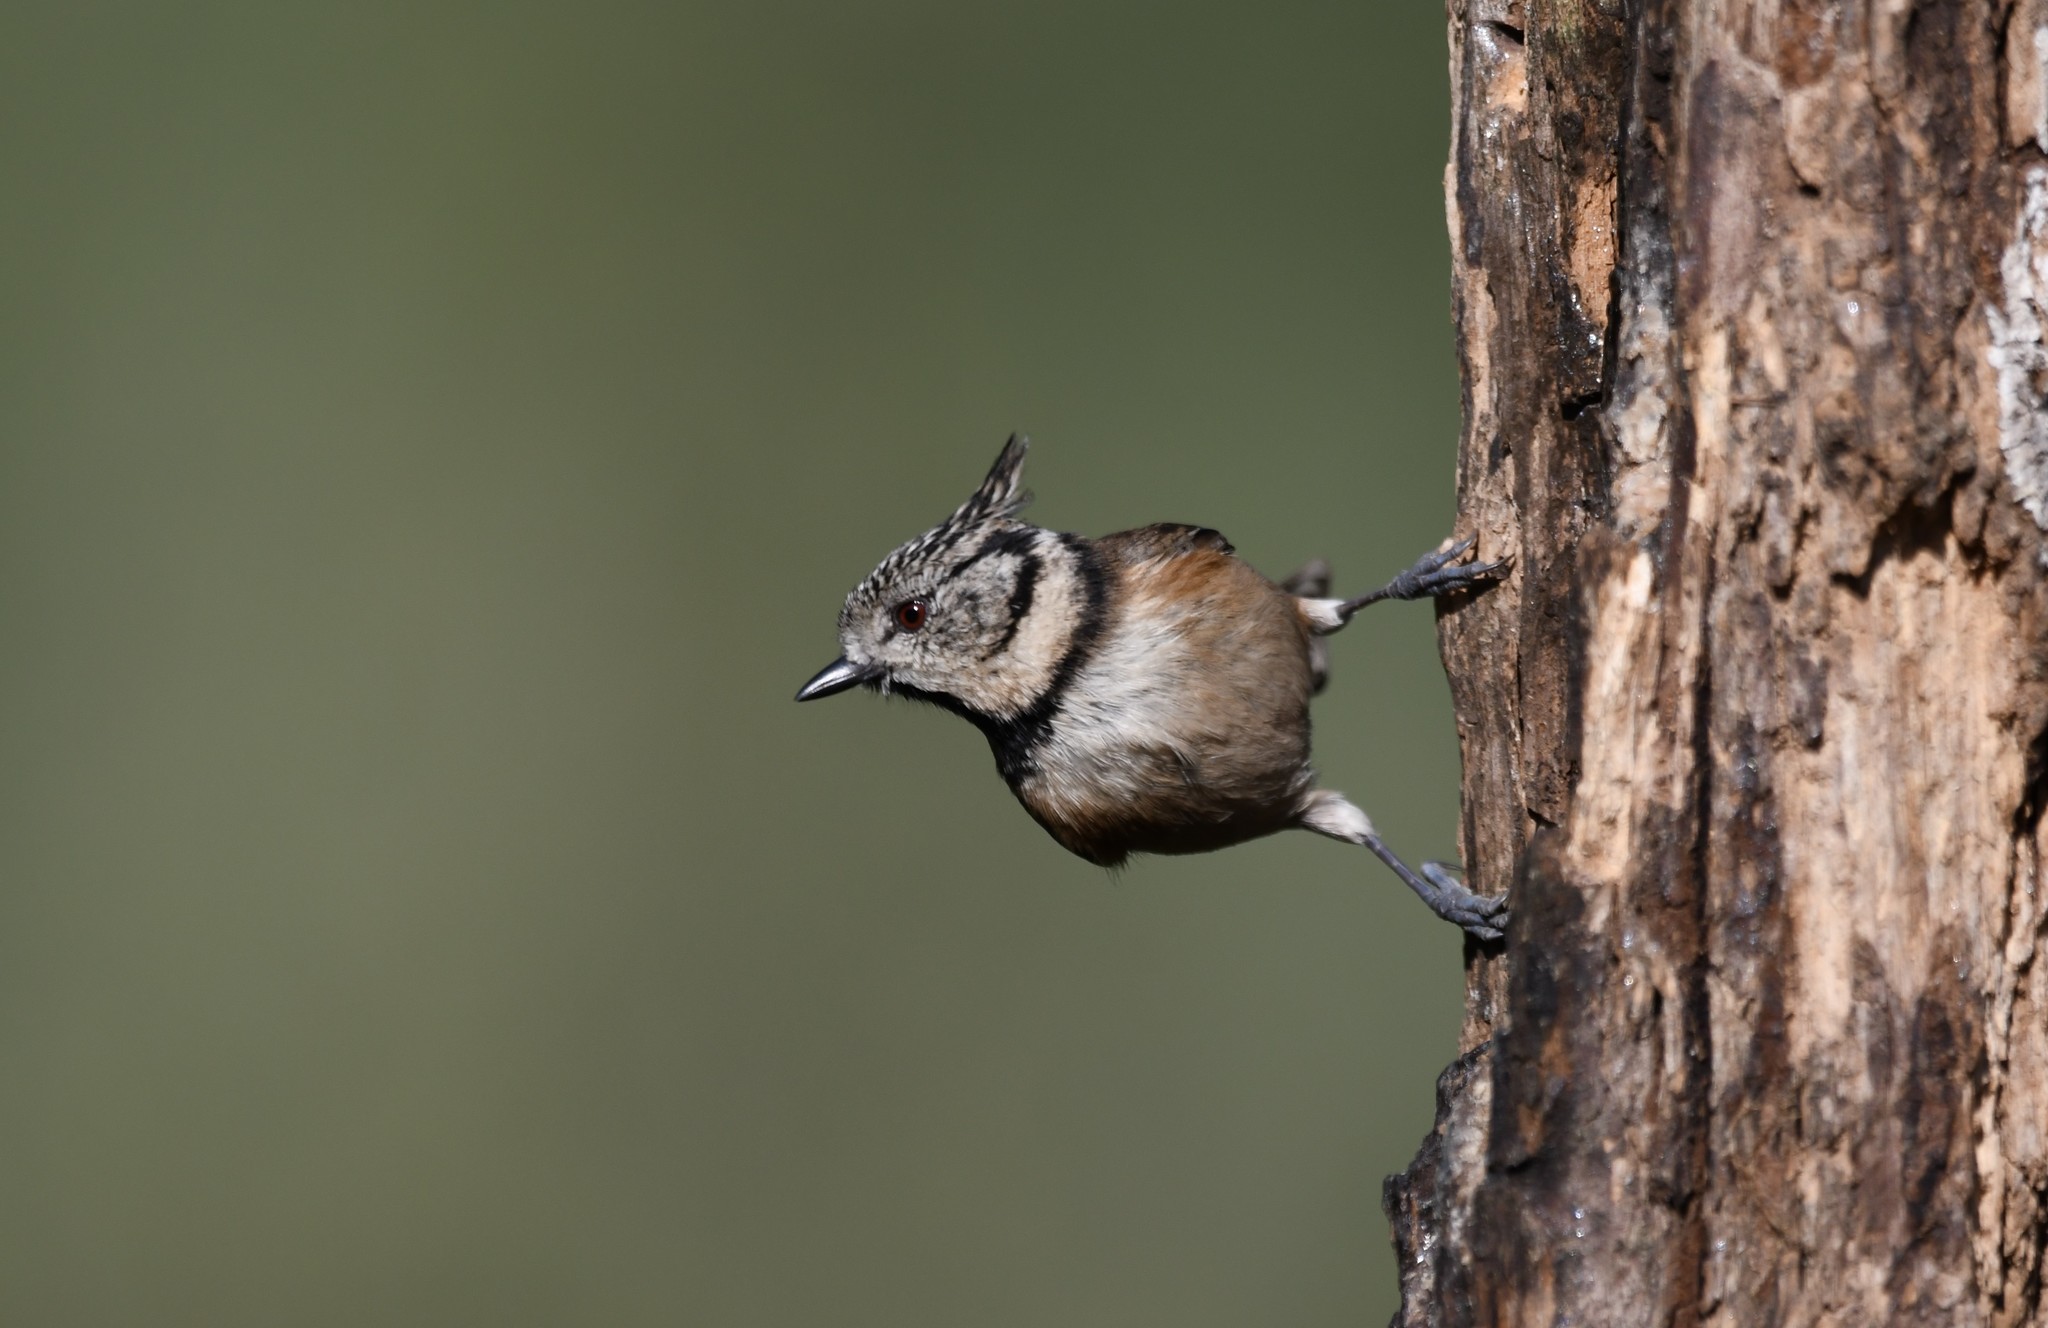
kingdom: Animalia
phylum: Chordata
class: Aves
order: Passeriformes
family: Paridae
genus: Lophophanes
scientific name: Lophophanes cristatus
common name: European crested tit
